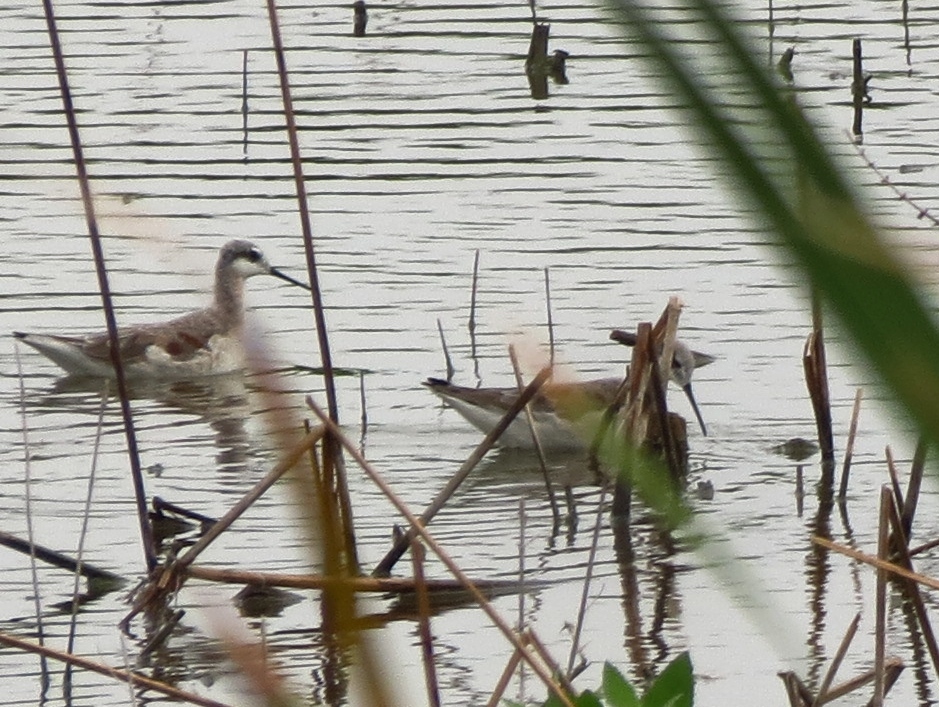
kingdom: Animalia
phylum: Chordata
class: Aves
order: Charadriiformes
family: Scolopacidae
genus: Phalaropus
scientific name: Phalaropus tricolor
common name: Wilson's phalarope
